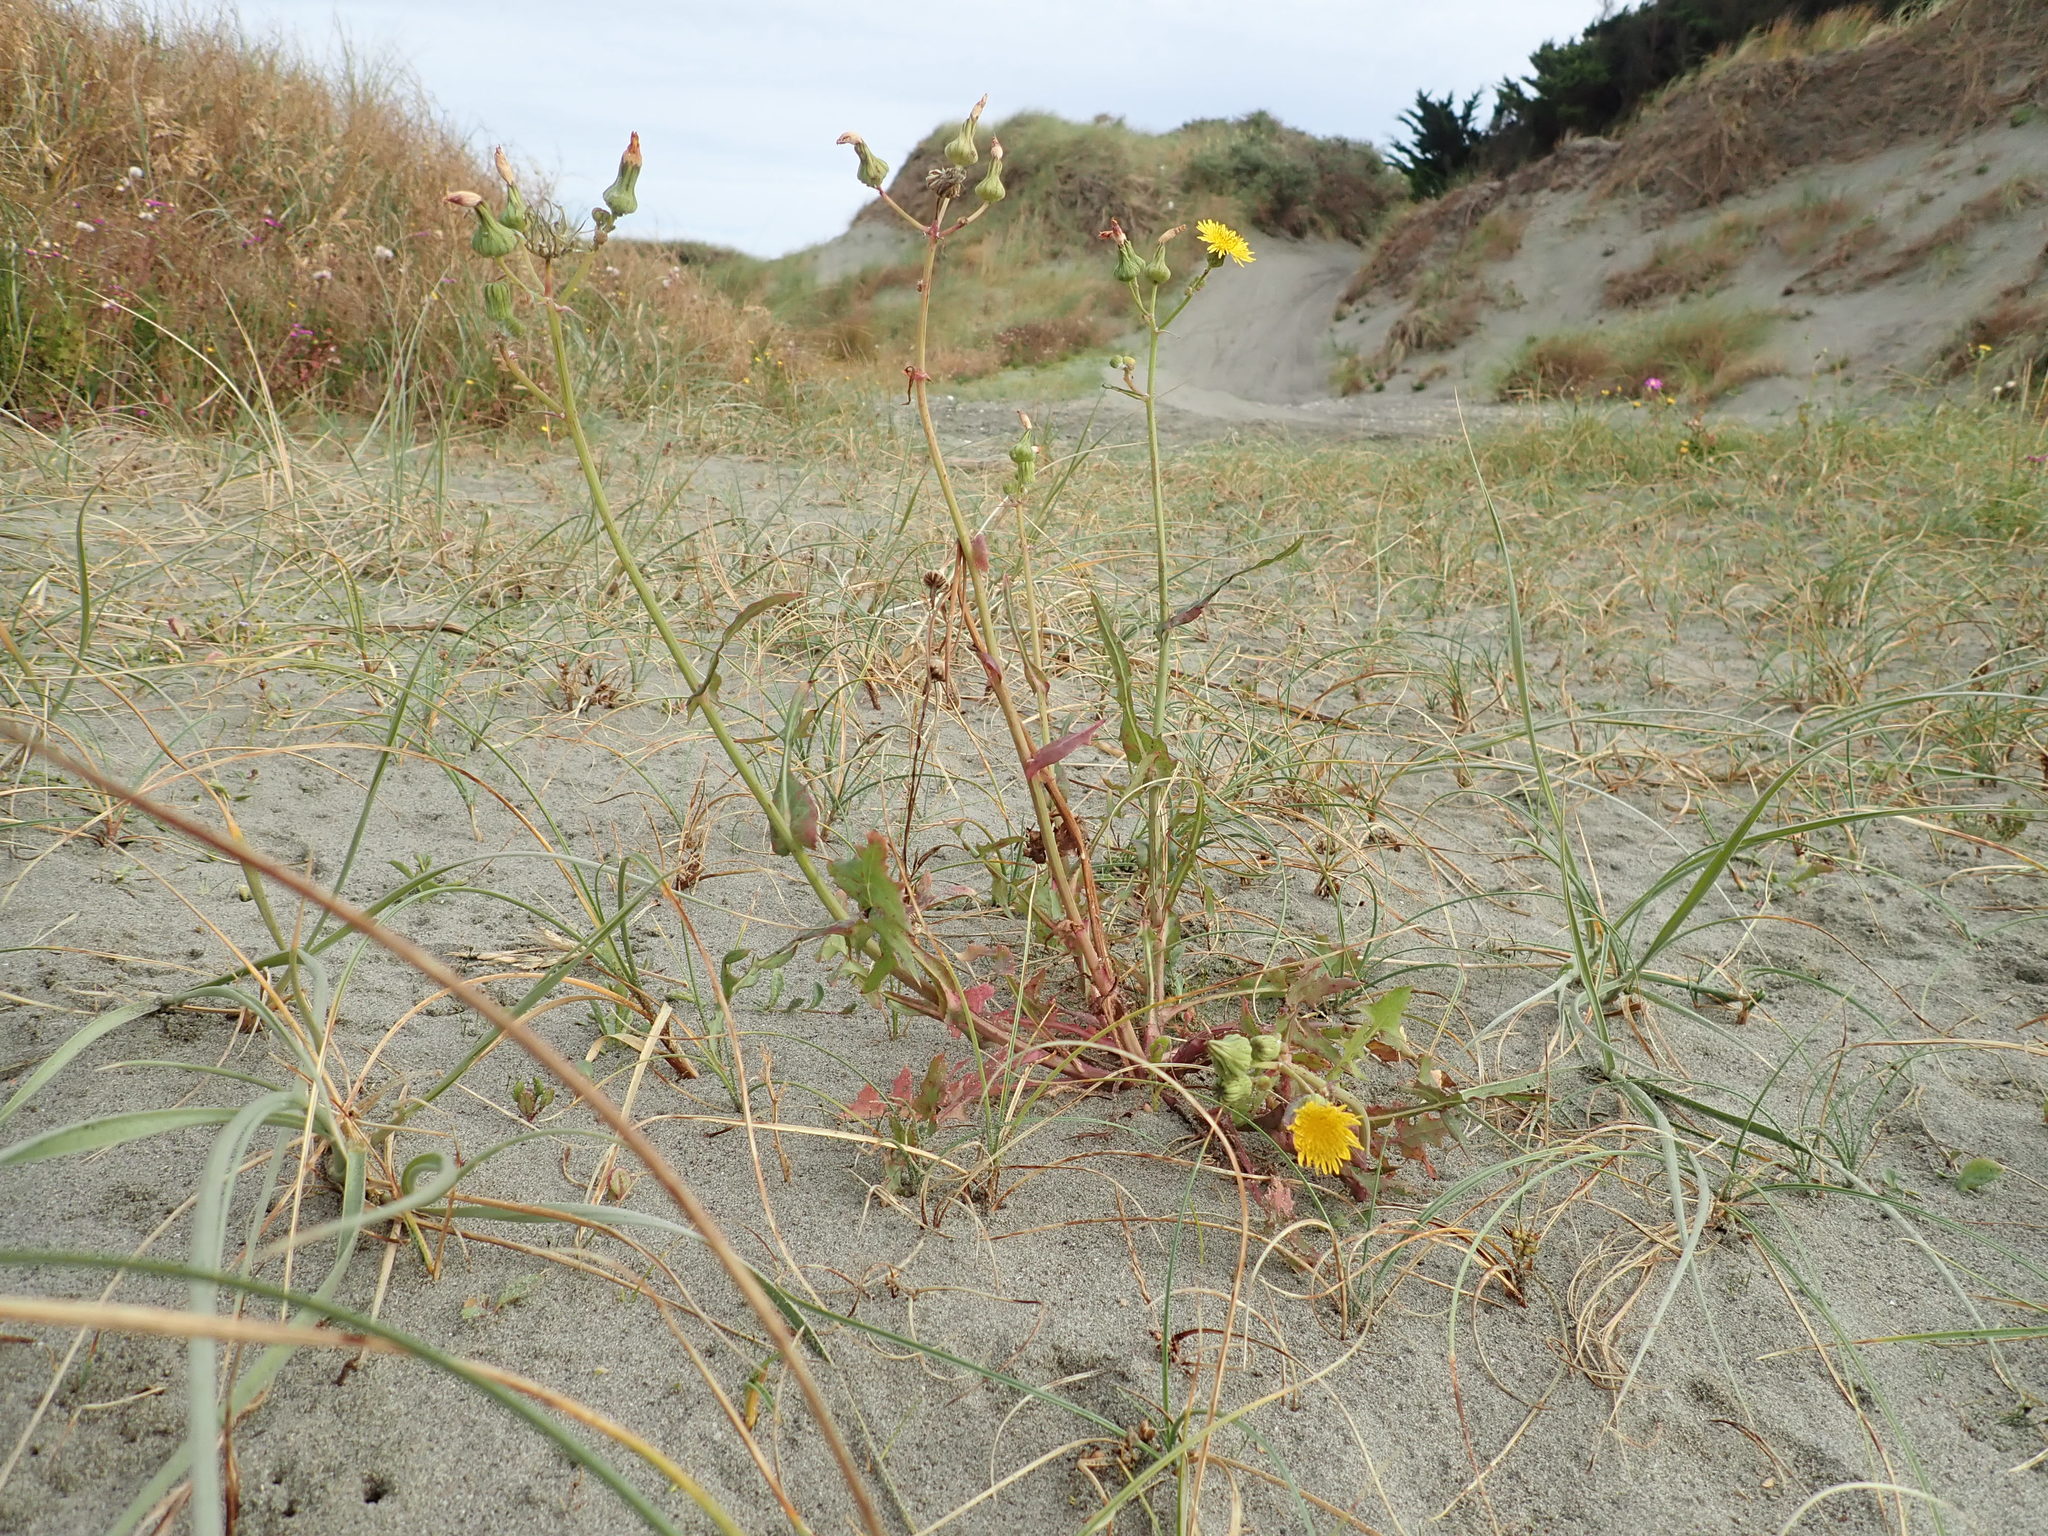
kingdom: Plantae
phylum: Tracheophyta
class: Magnoliopsida
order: Asterales
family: Asteraceae
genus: Sonchus
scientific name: Sonchus oleraceus
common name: Common sowthistle
